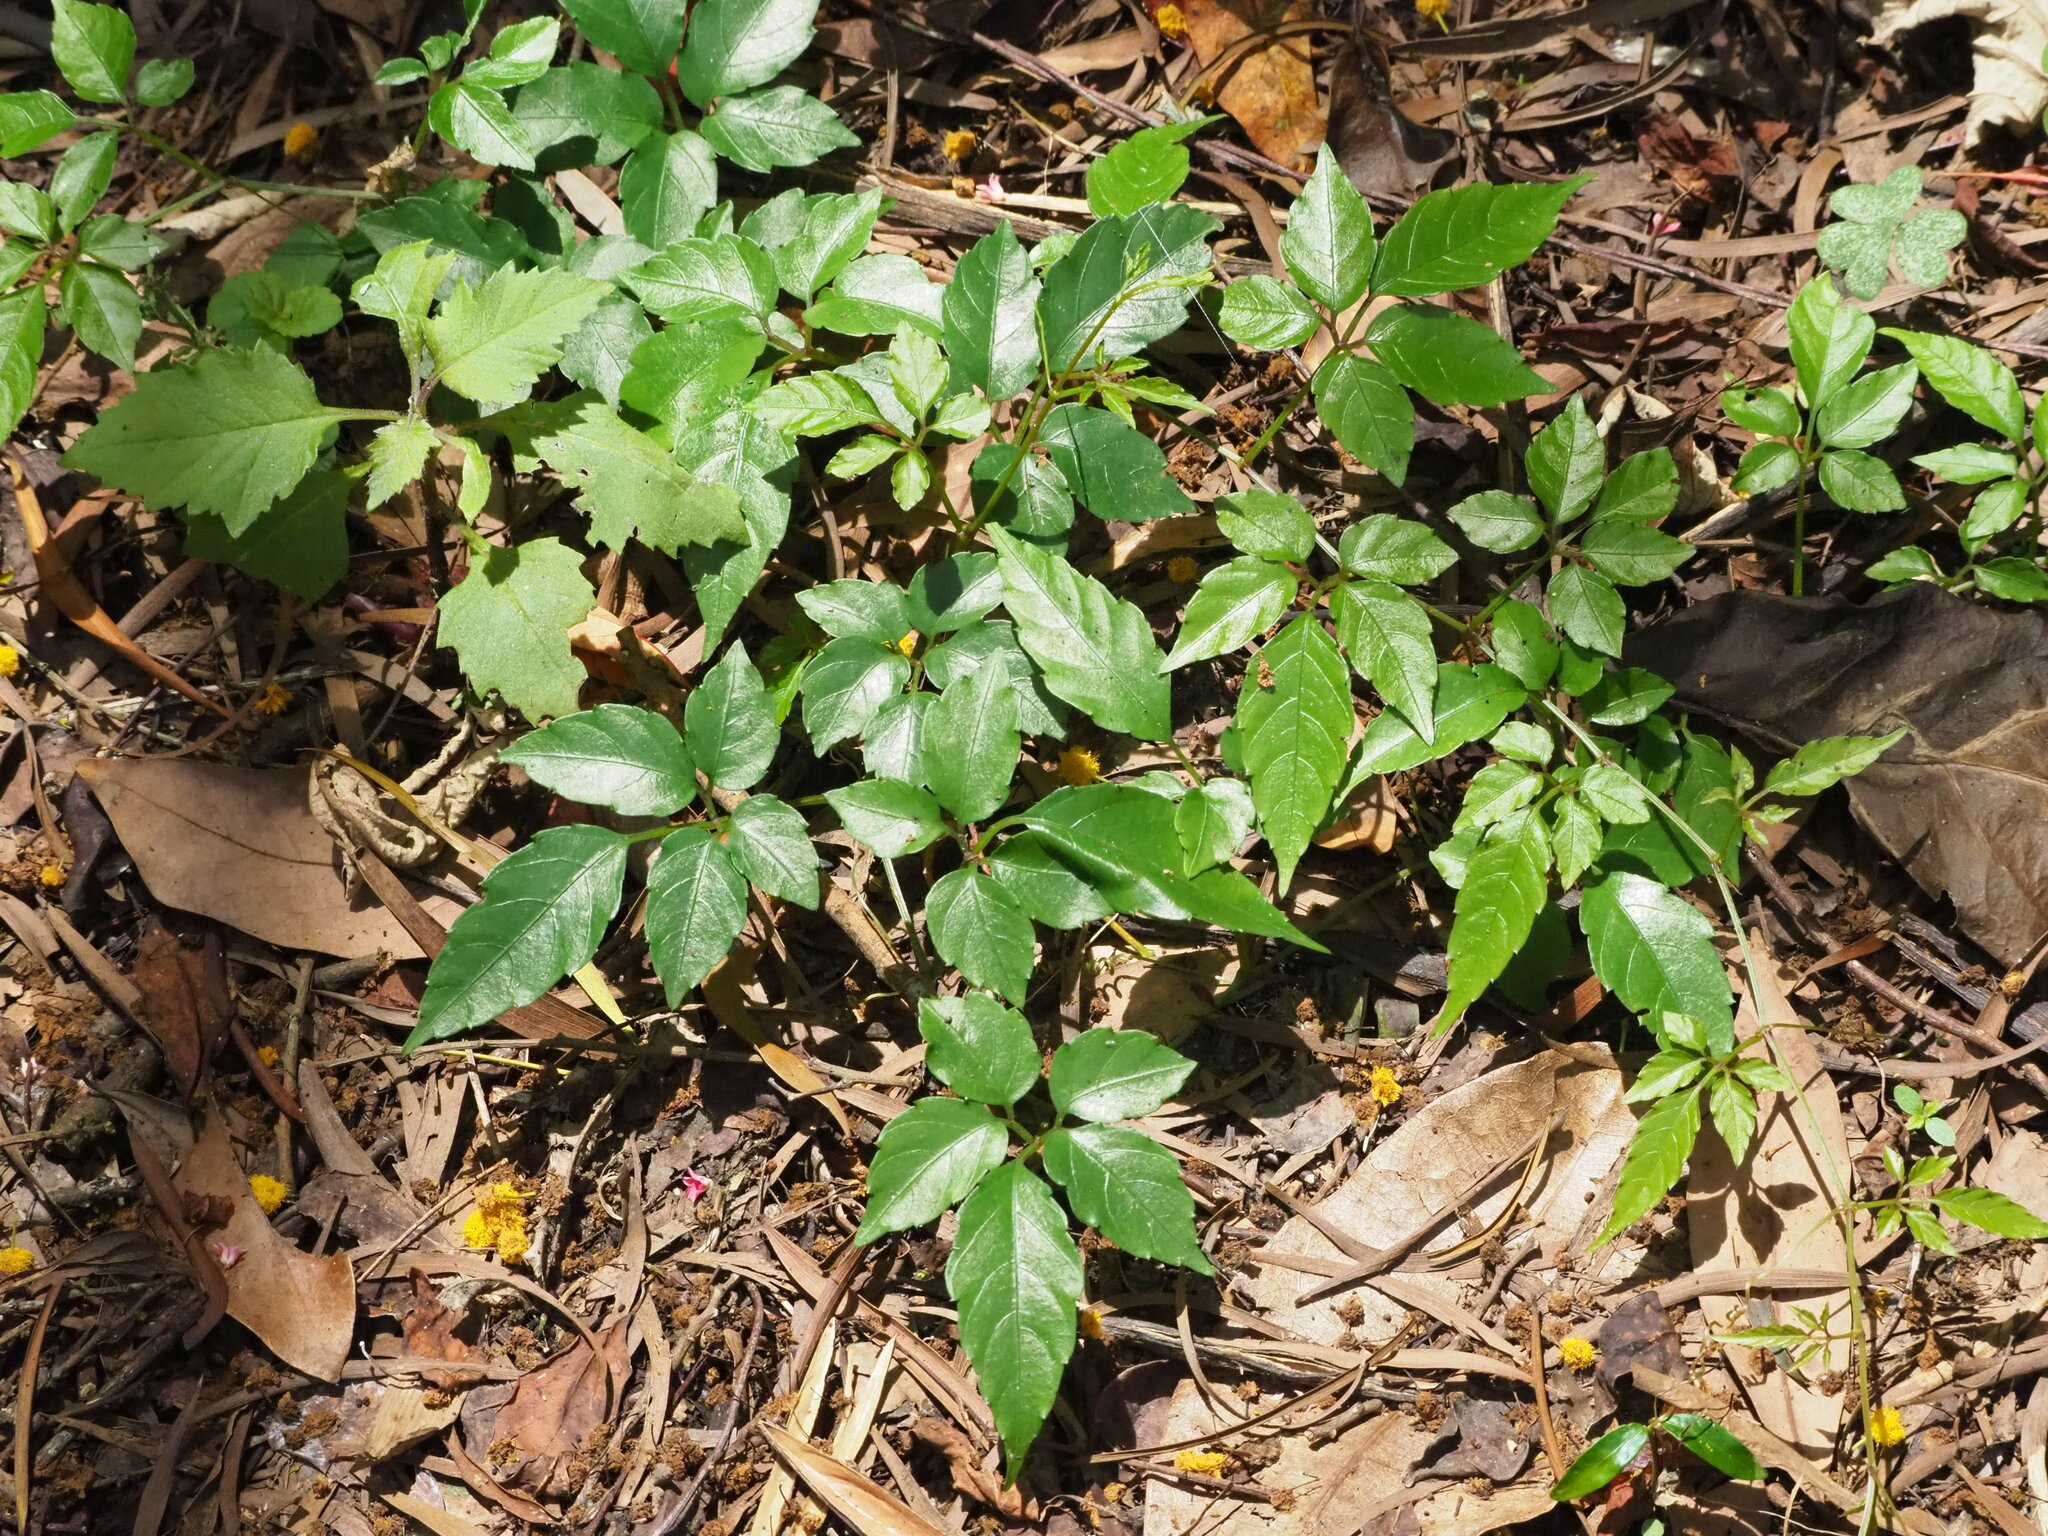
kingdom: Plantae
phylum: Tracheophyta
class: Magnoliopsida
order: Vitales
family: Vitaceae
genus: Causonis
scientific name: Causonis corniculata
